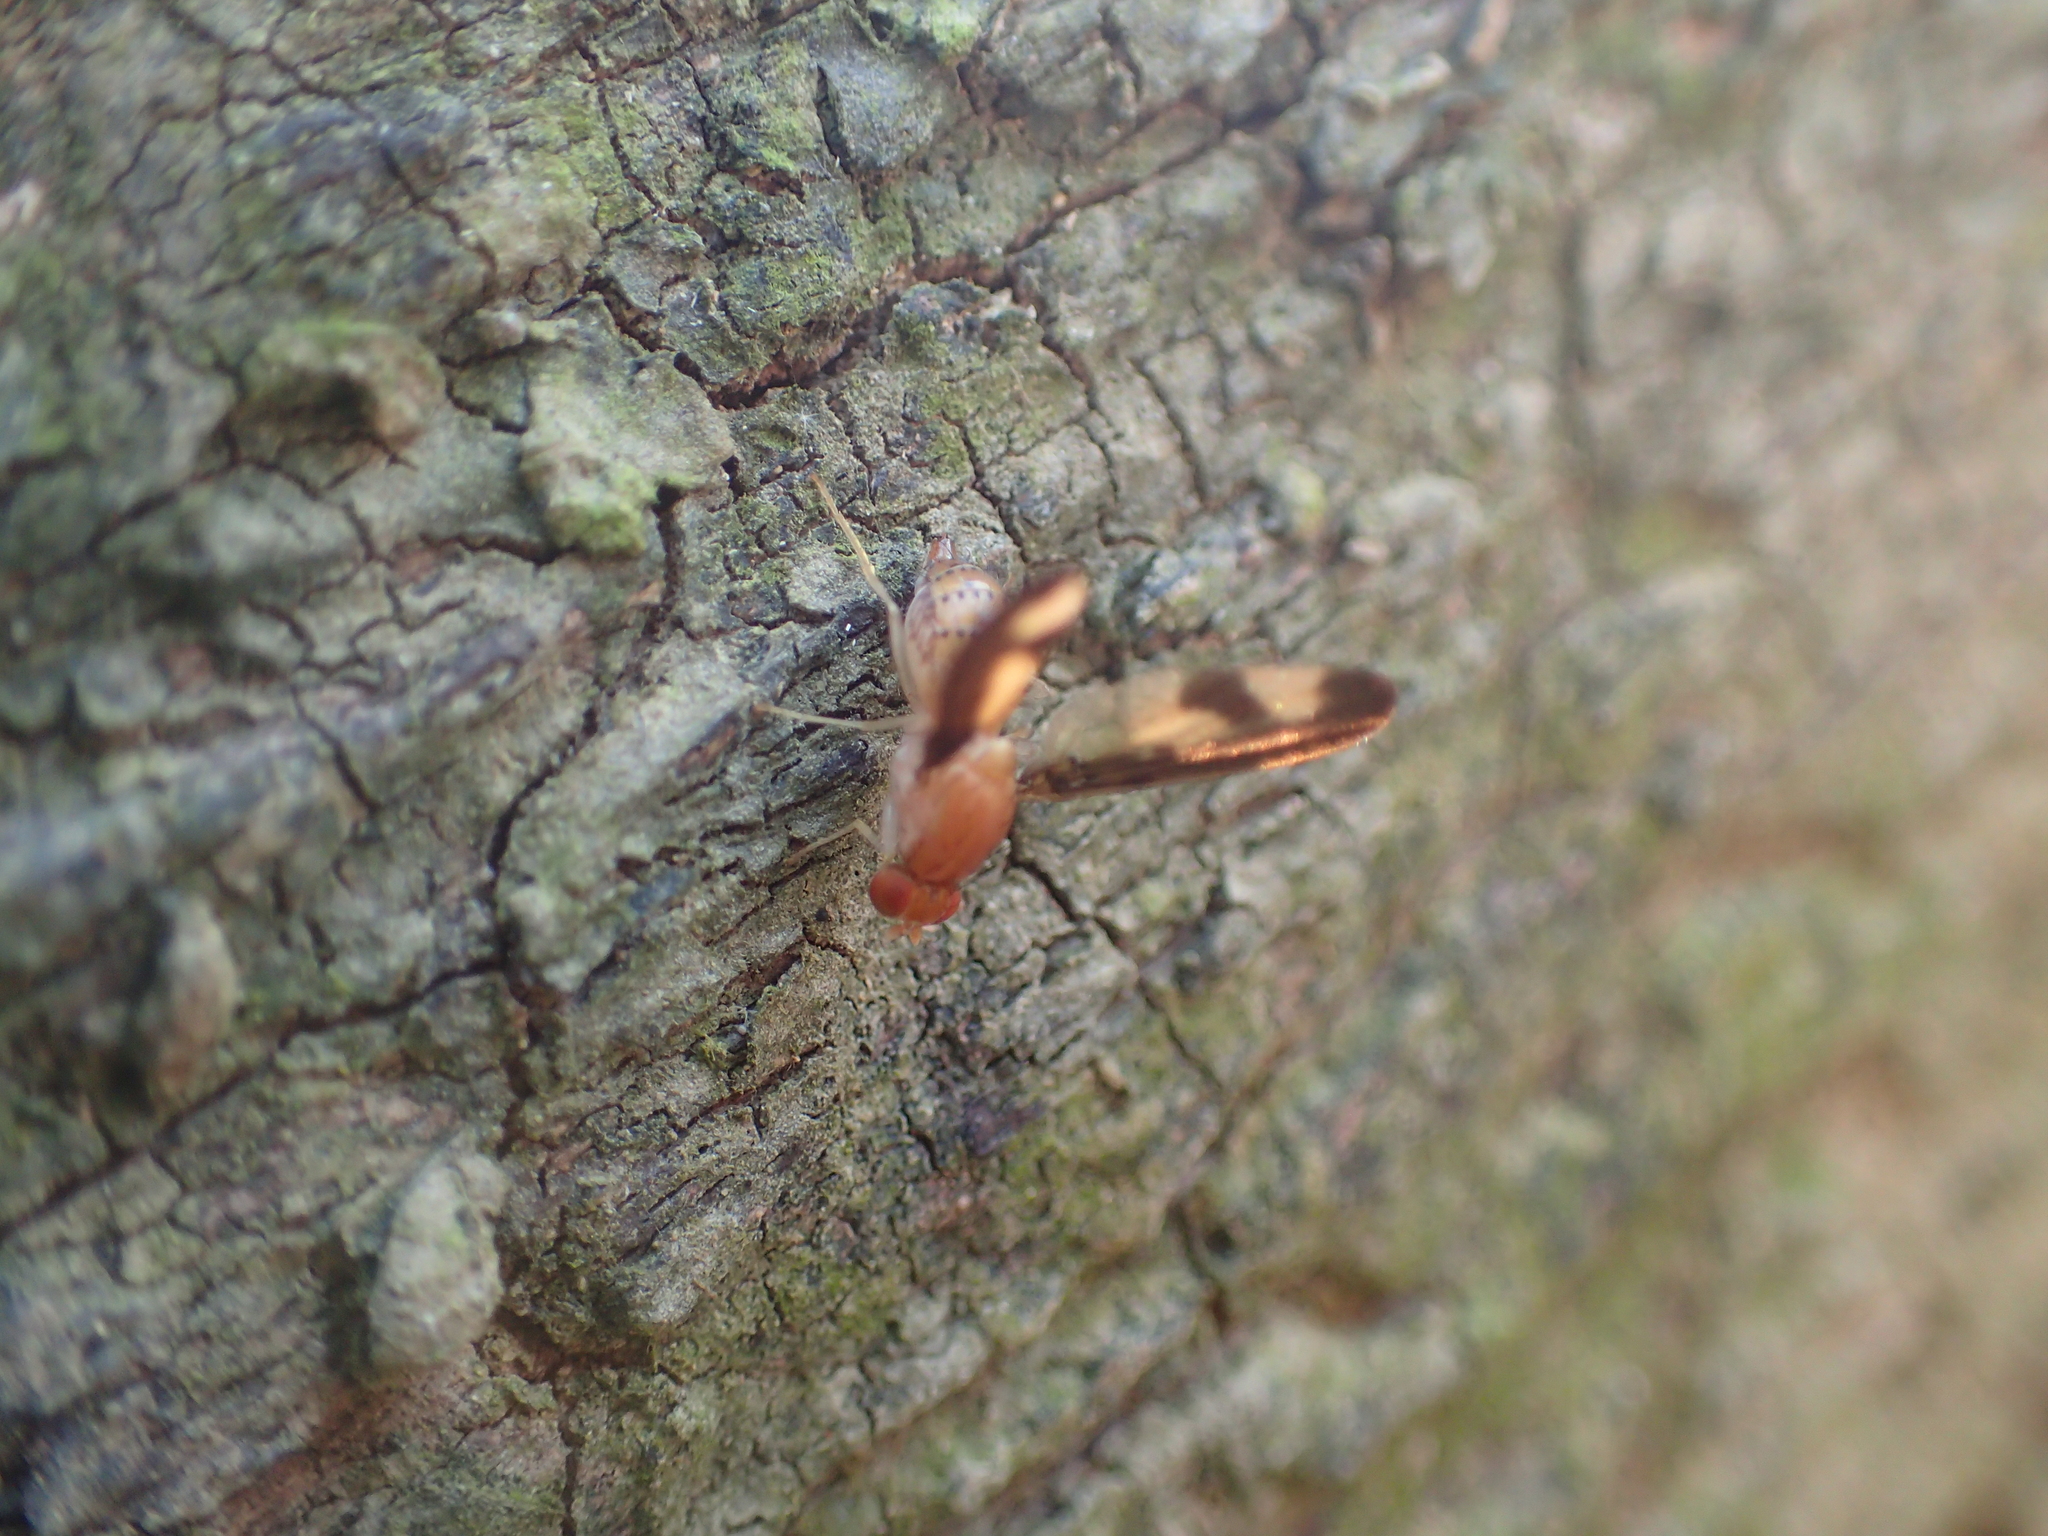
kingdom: Animalia
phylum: Arthropoda
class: Insecta
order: Diptera
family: Pallopteridae
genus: Toxonevra
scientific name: Toxonevra superba
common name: Antlered flutter fly
